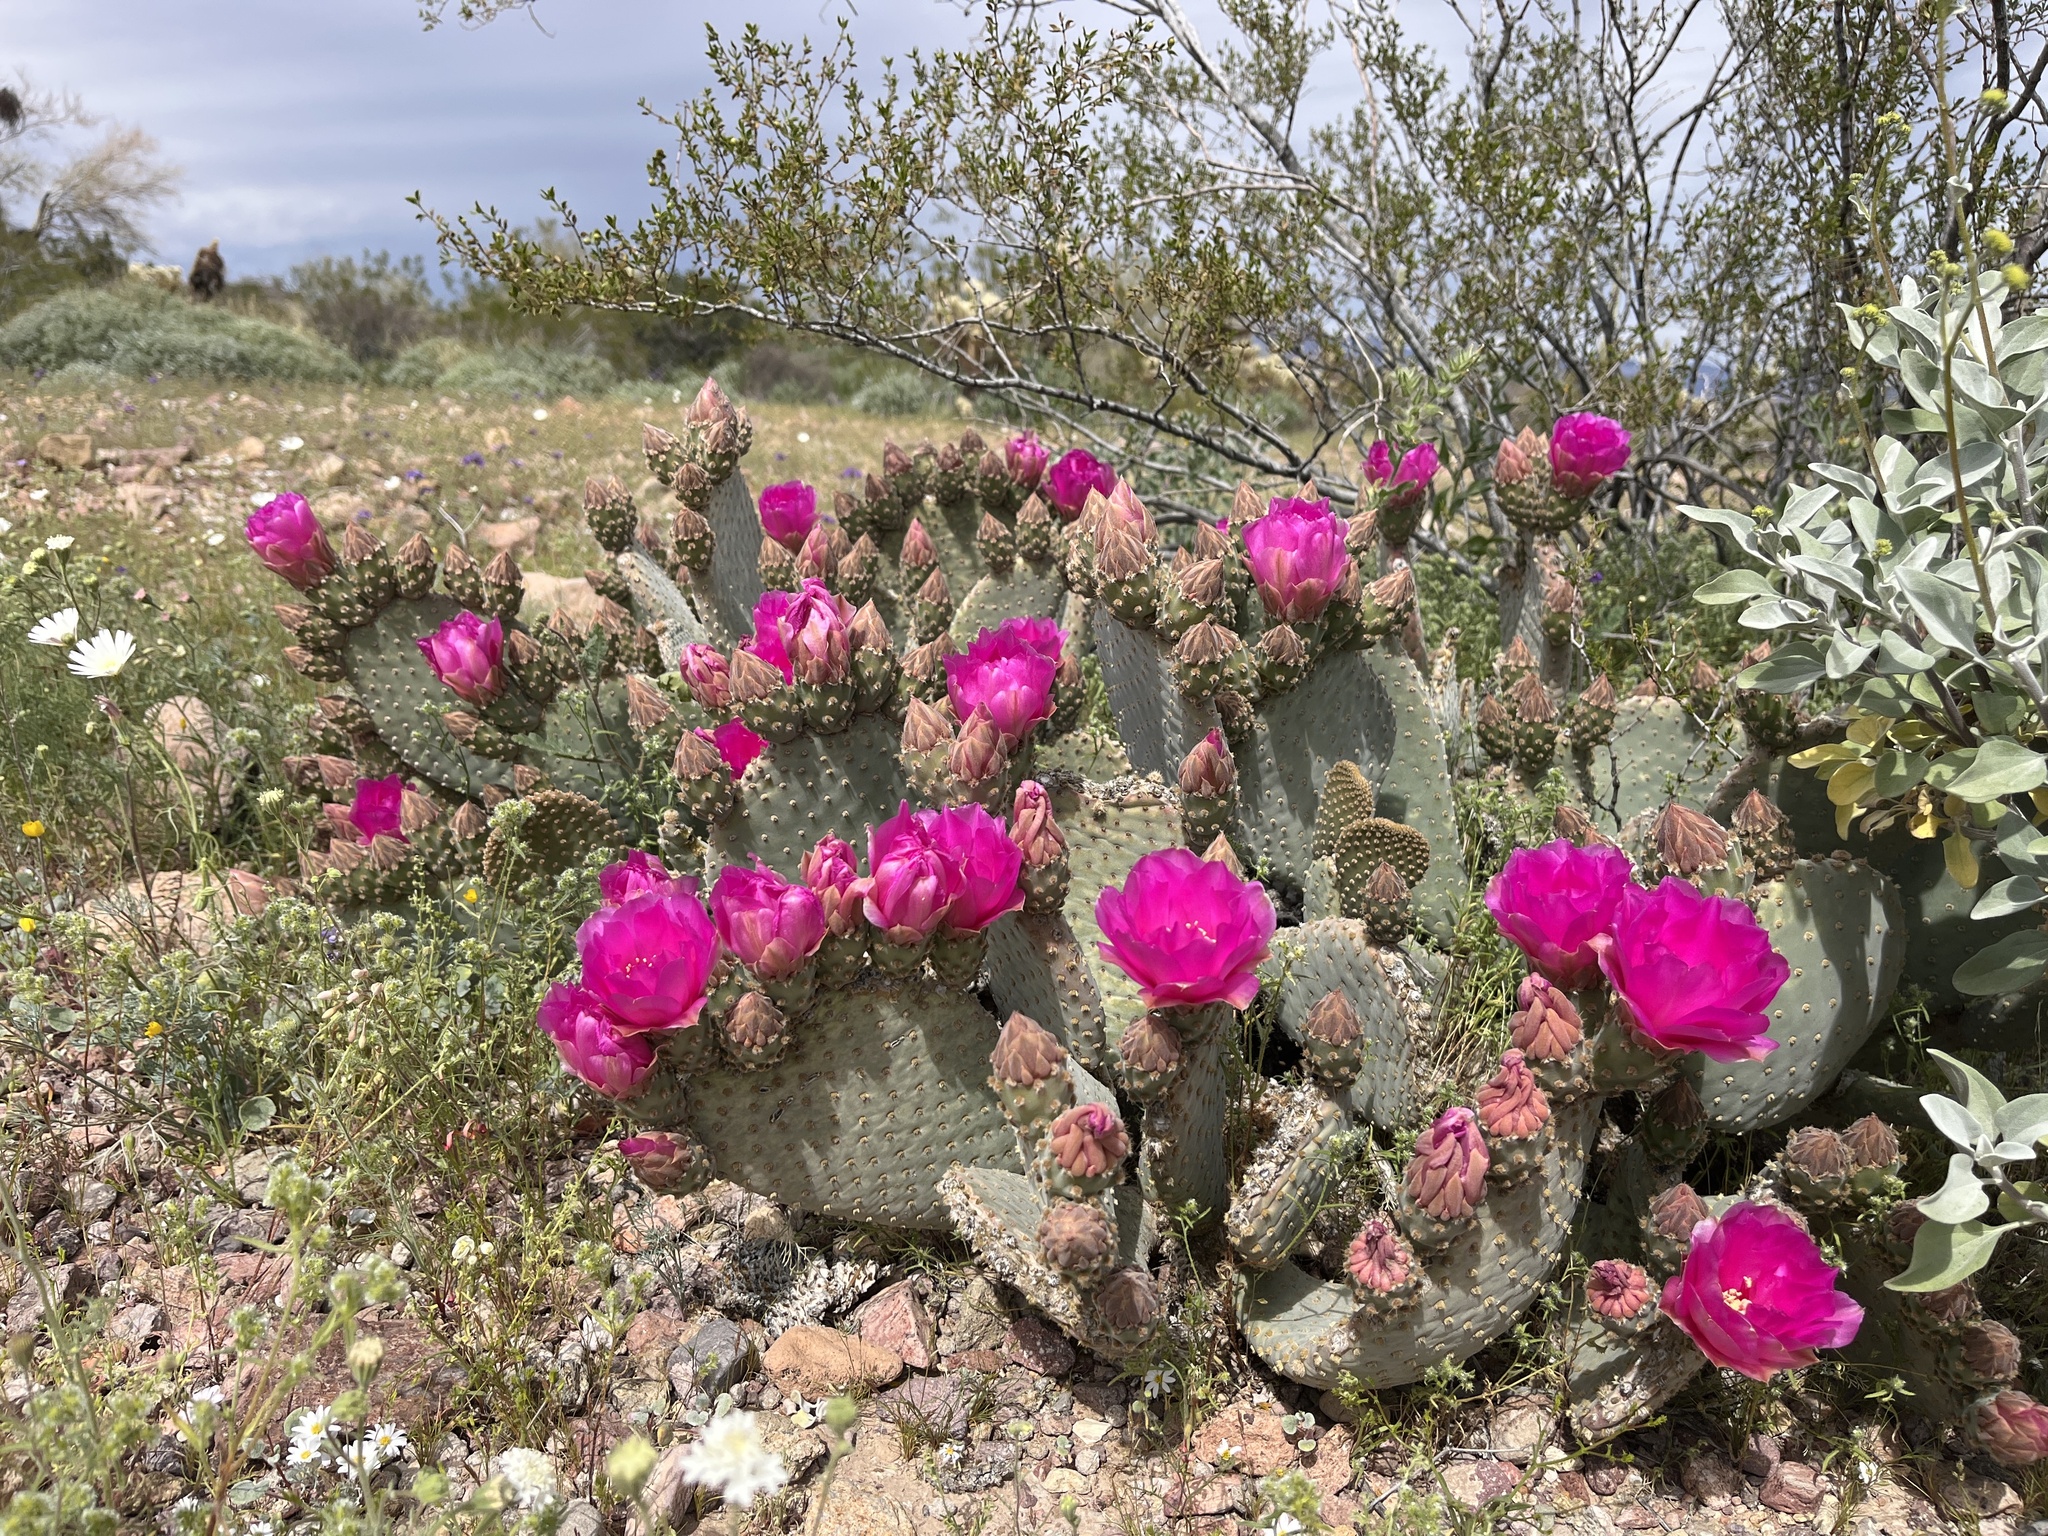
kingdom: Plantae
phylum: Tracheophyta
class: Magnoliopsida
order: Caryophyllales
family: Cactaceae
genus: Opuntia
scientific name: Opuntia basilaris
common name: Beavertail prickly-pear
